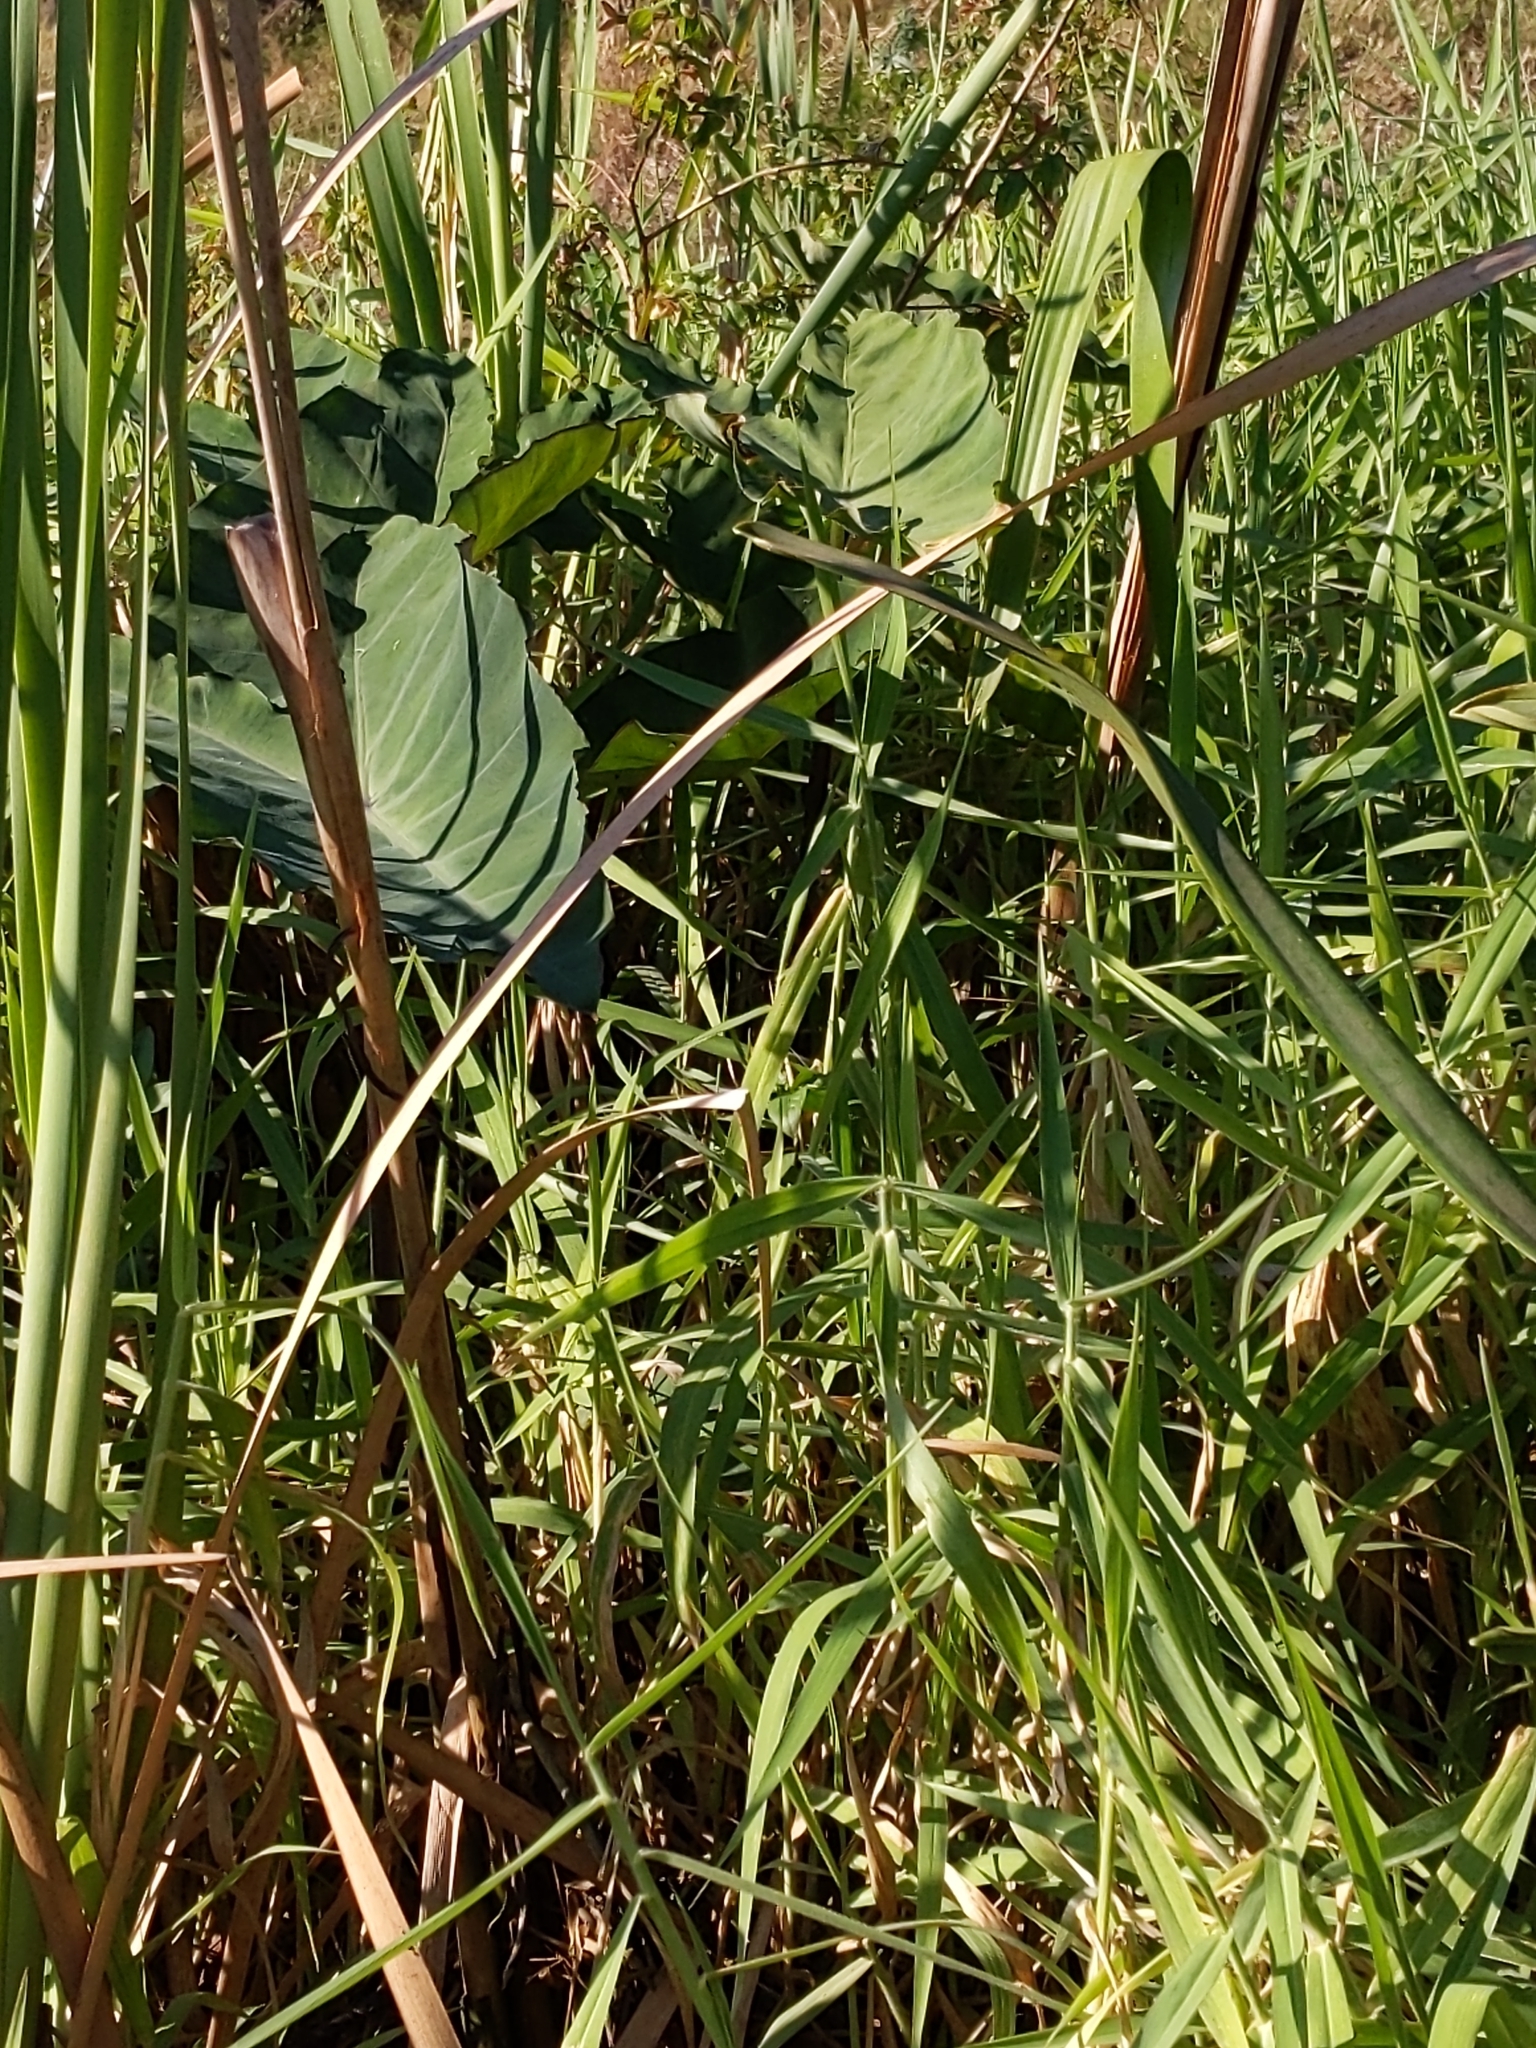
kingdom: Plantae
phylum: Tracheophyta
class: Liliopsida
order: Alismatales
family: Araceae
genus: Colocasia
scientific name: Colocasia esculenta
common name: Taro
